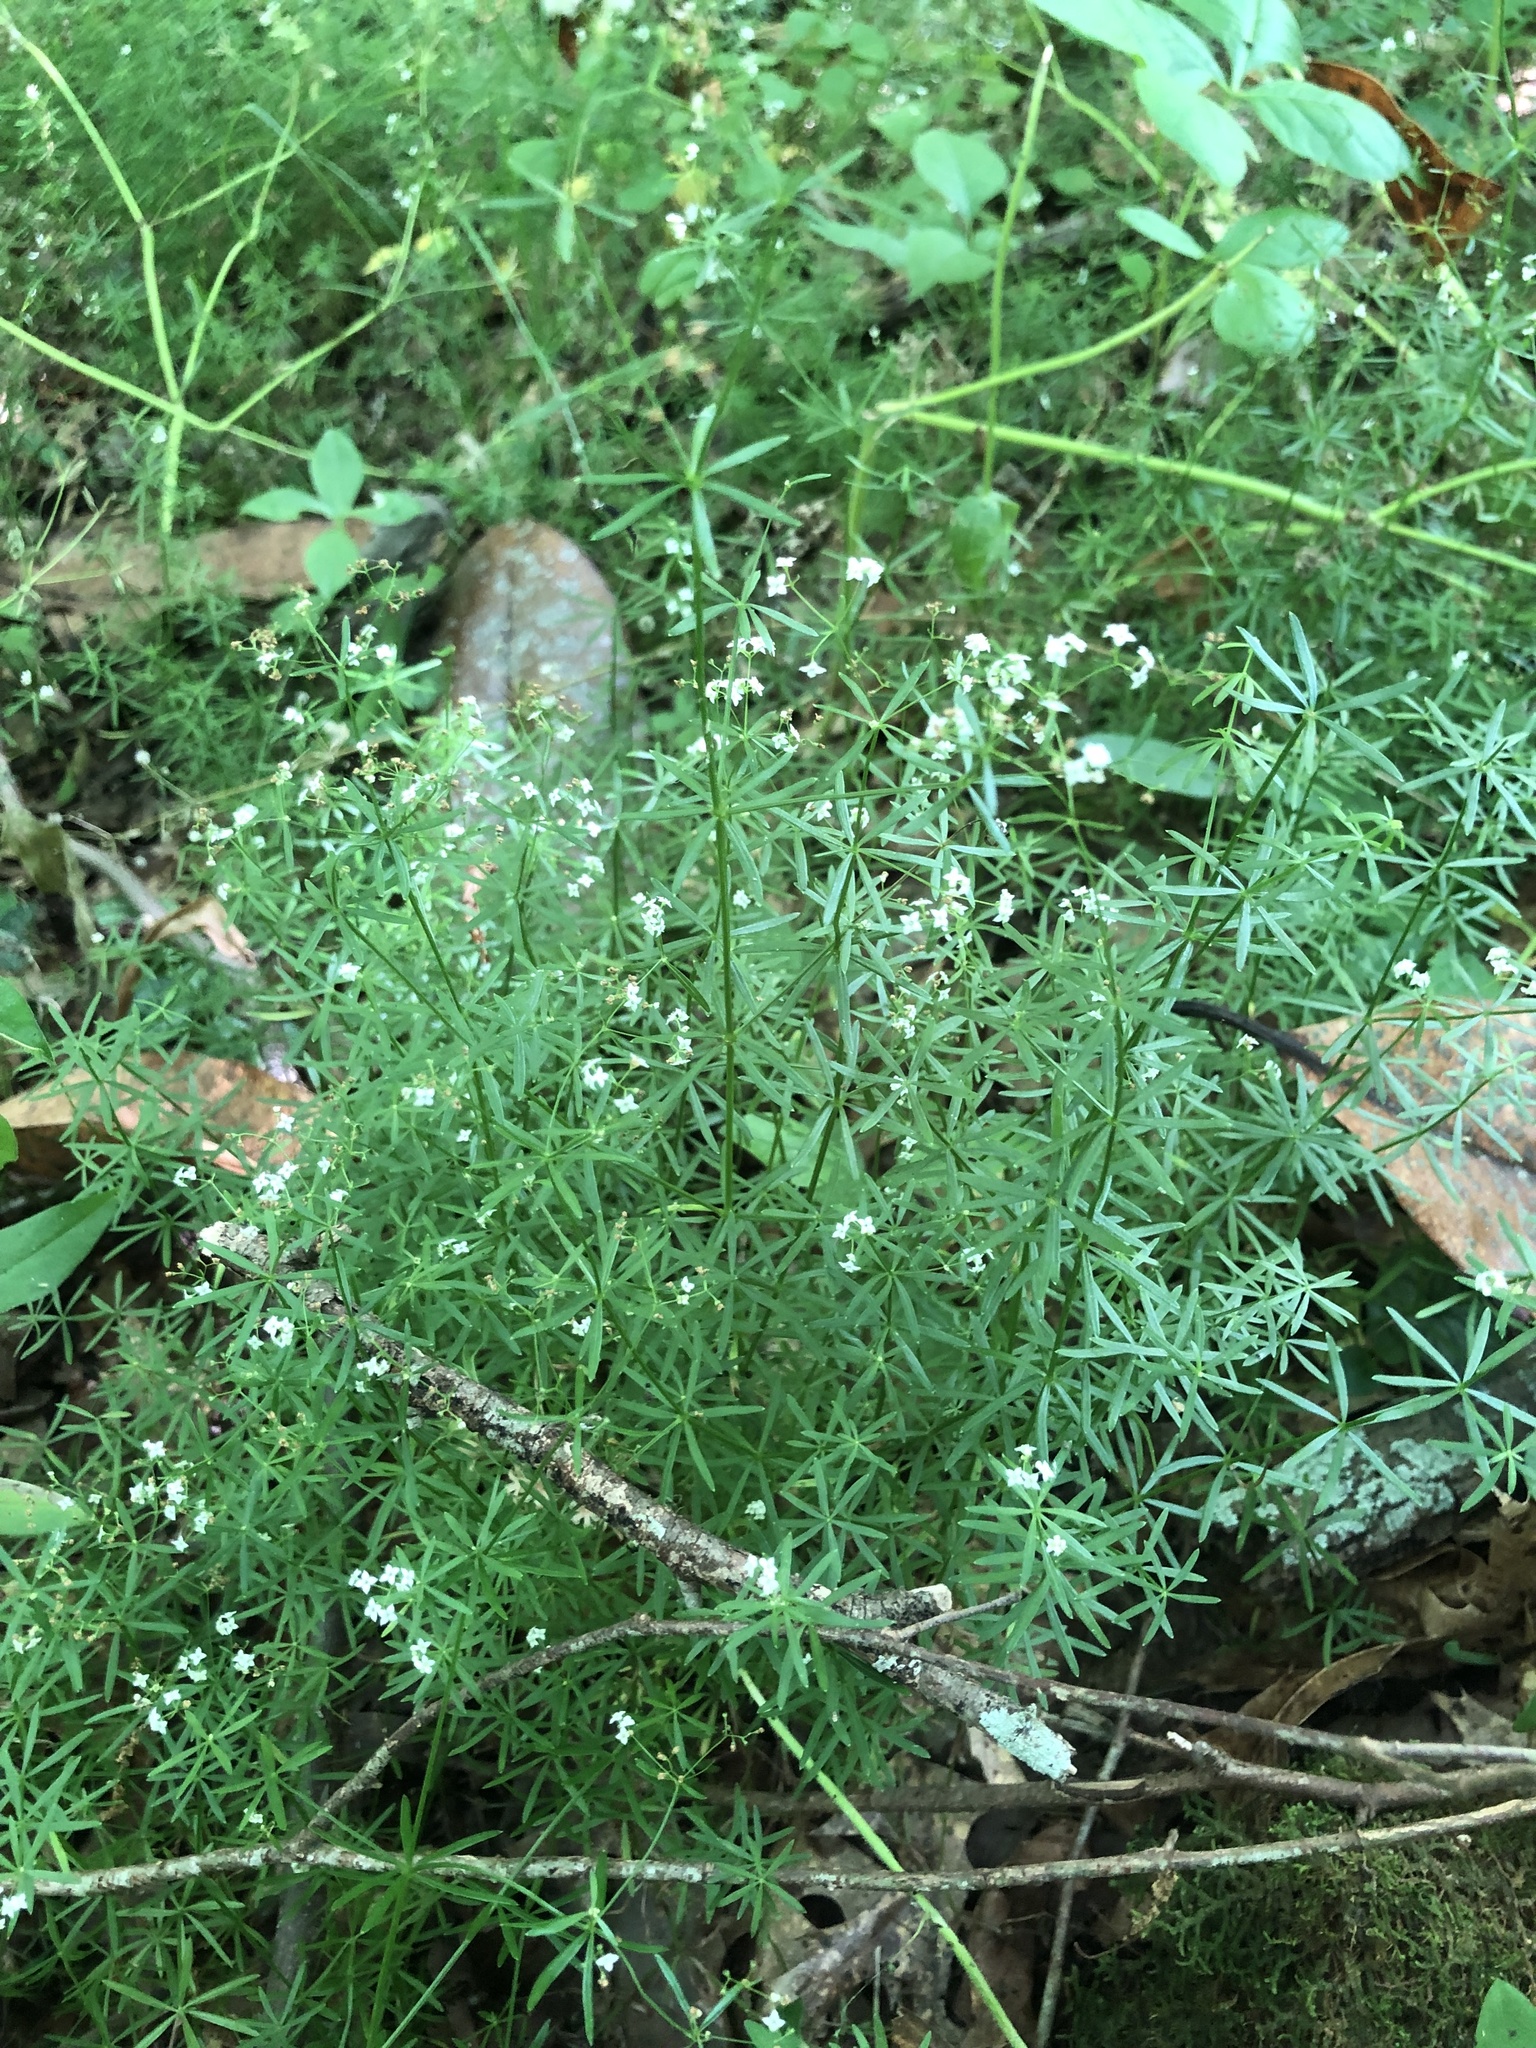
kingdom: Plantae
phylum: Tracheophyta
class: Magnoliopsida
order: Gentianales
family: Rubiaceae
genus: Galium
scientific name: Galium concinnum
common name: Shining bedstraw
